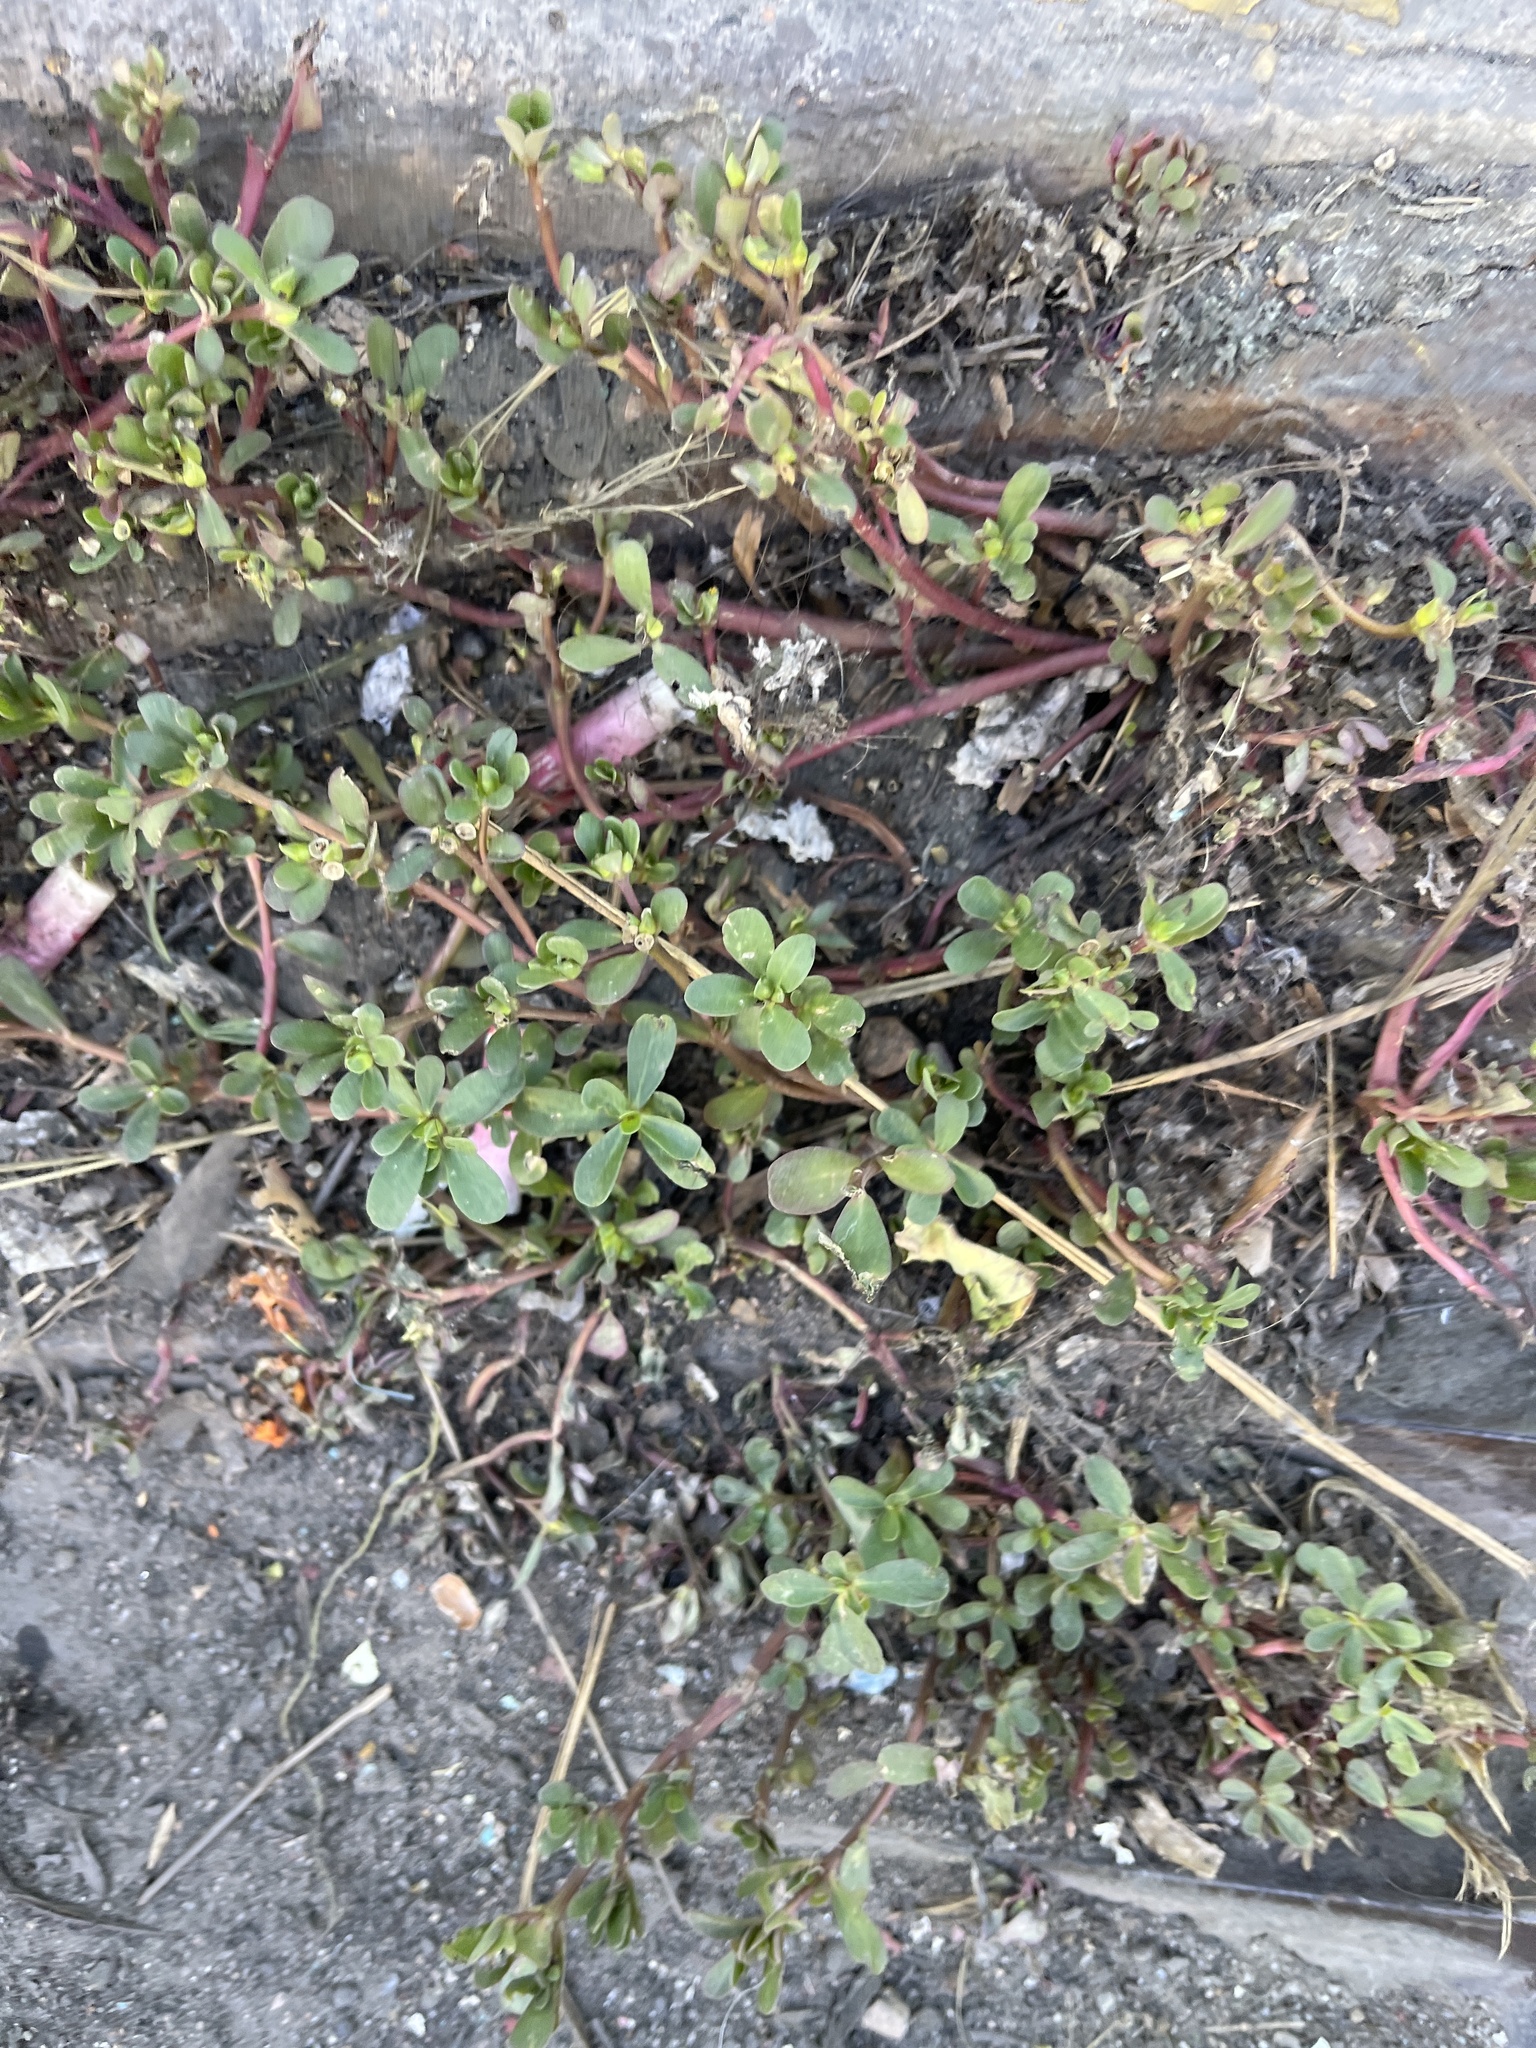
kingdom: Plantae
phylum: Tracheophyta
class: Magnoliopsida
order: Caryophyllales
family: Portulacaceae
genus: Portulaca
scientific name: Portulaca oleracea
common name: Common purslane
